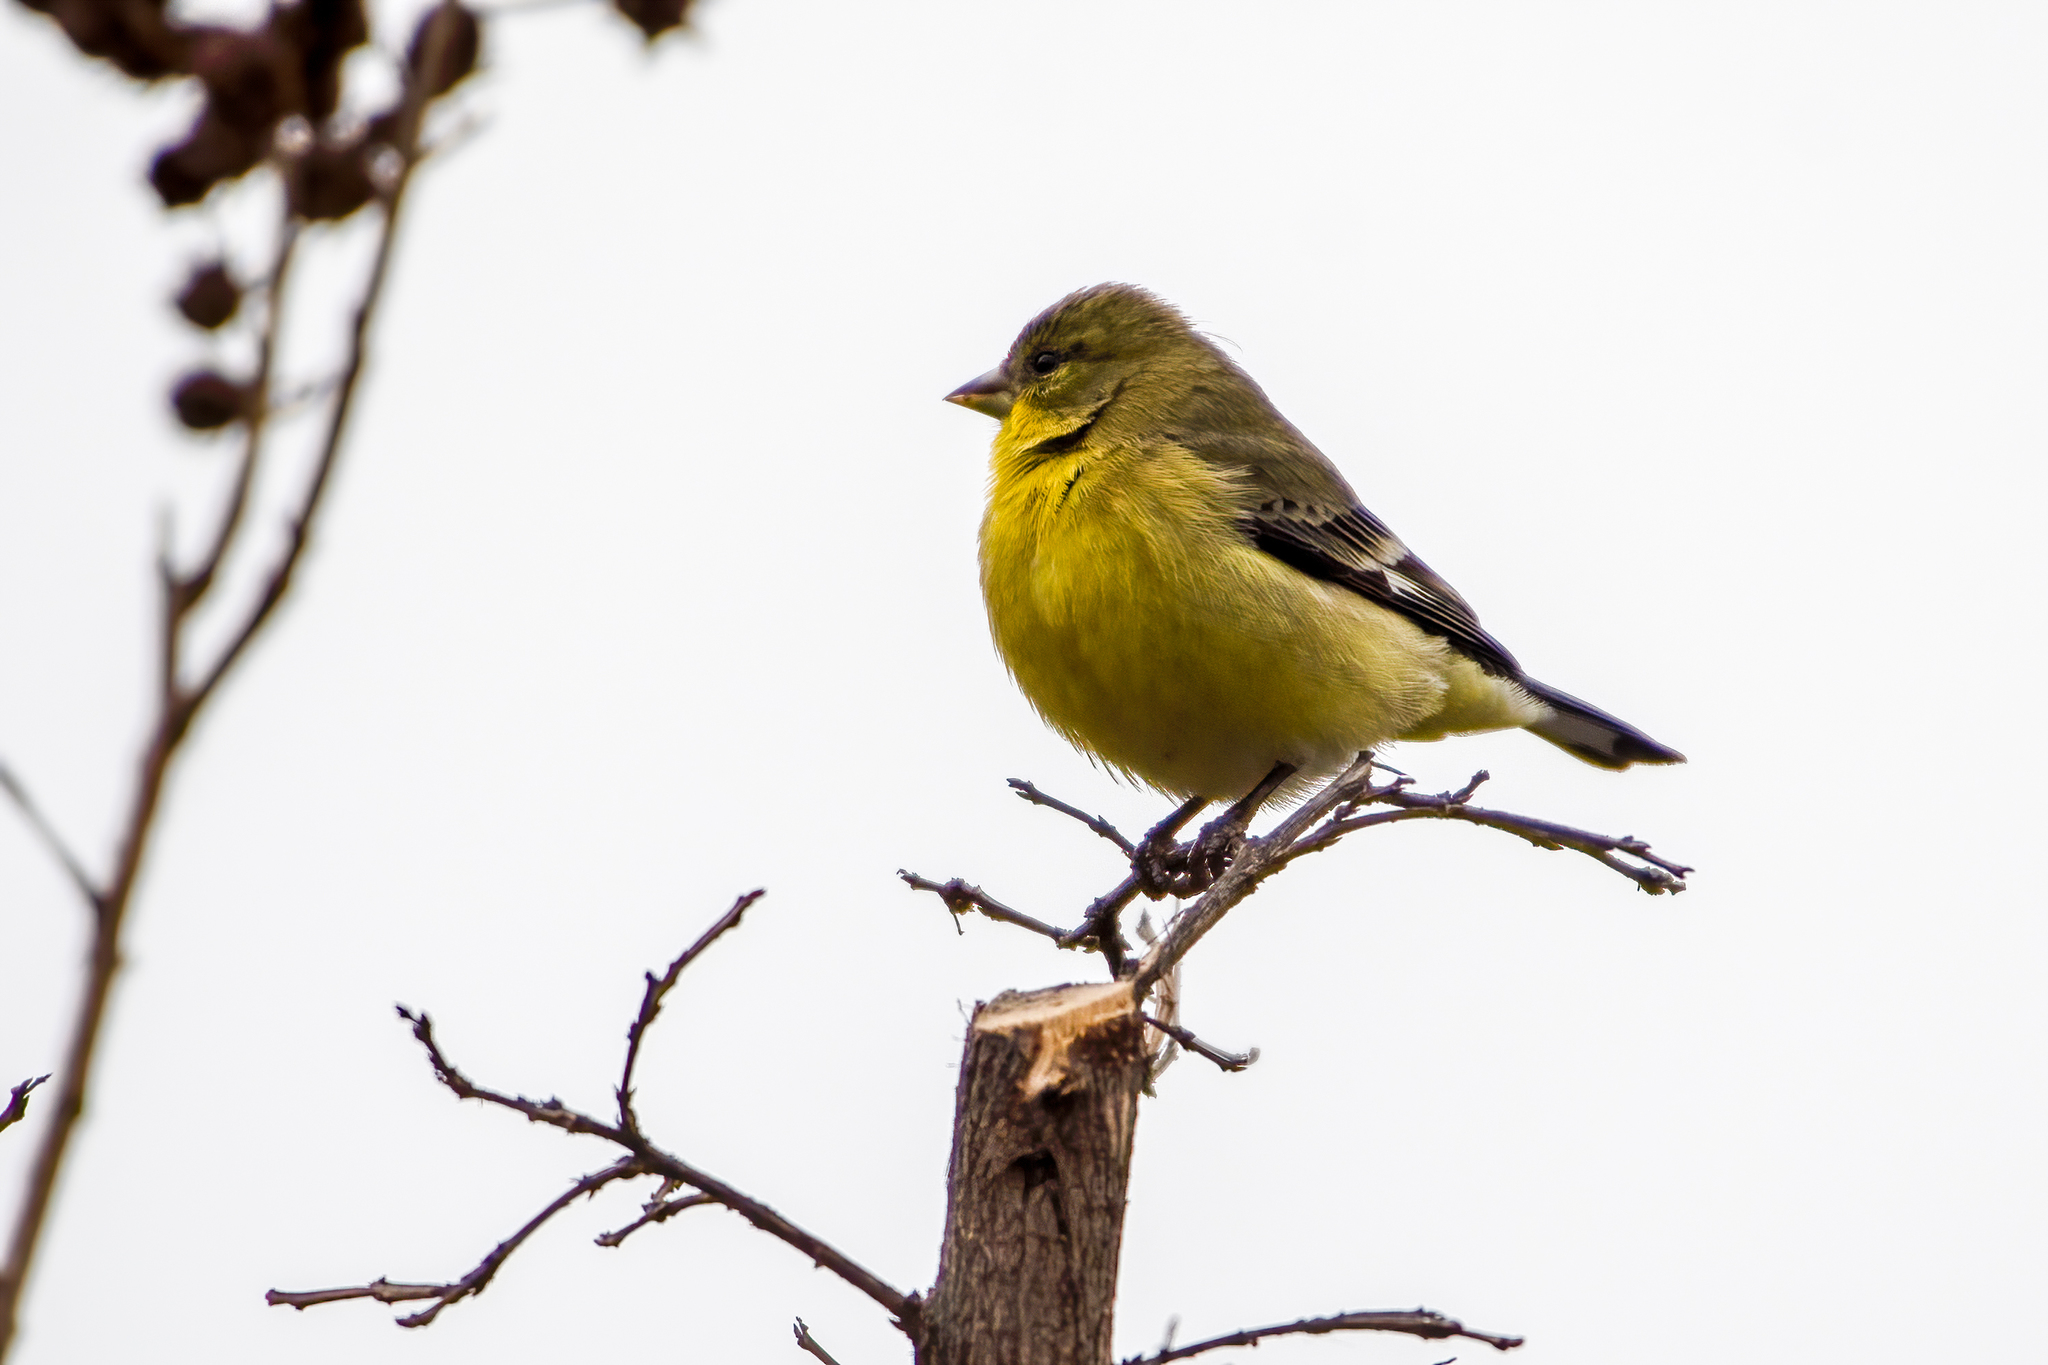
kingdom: Animalia
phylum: Chordata
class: Aves
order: Passeriformes
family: Fringillidae
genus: Spinus
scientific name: Spinus psaltria
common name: Lesser goldfinch
